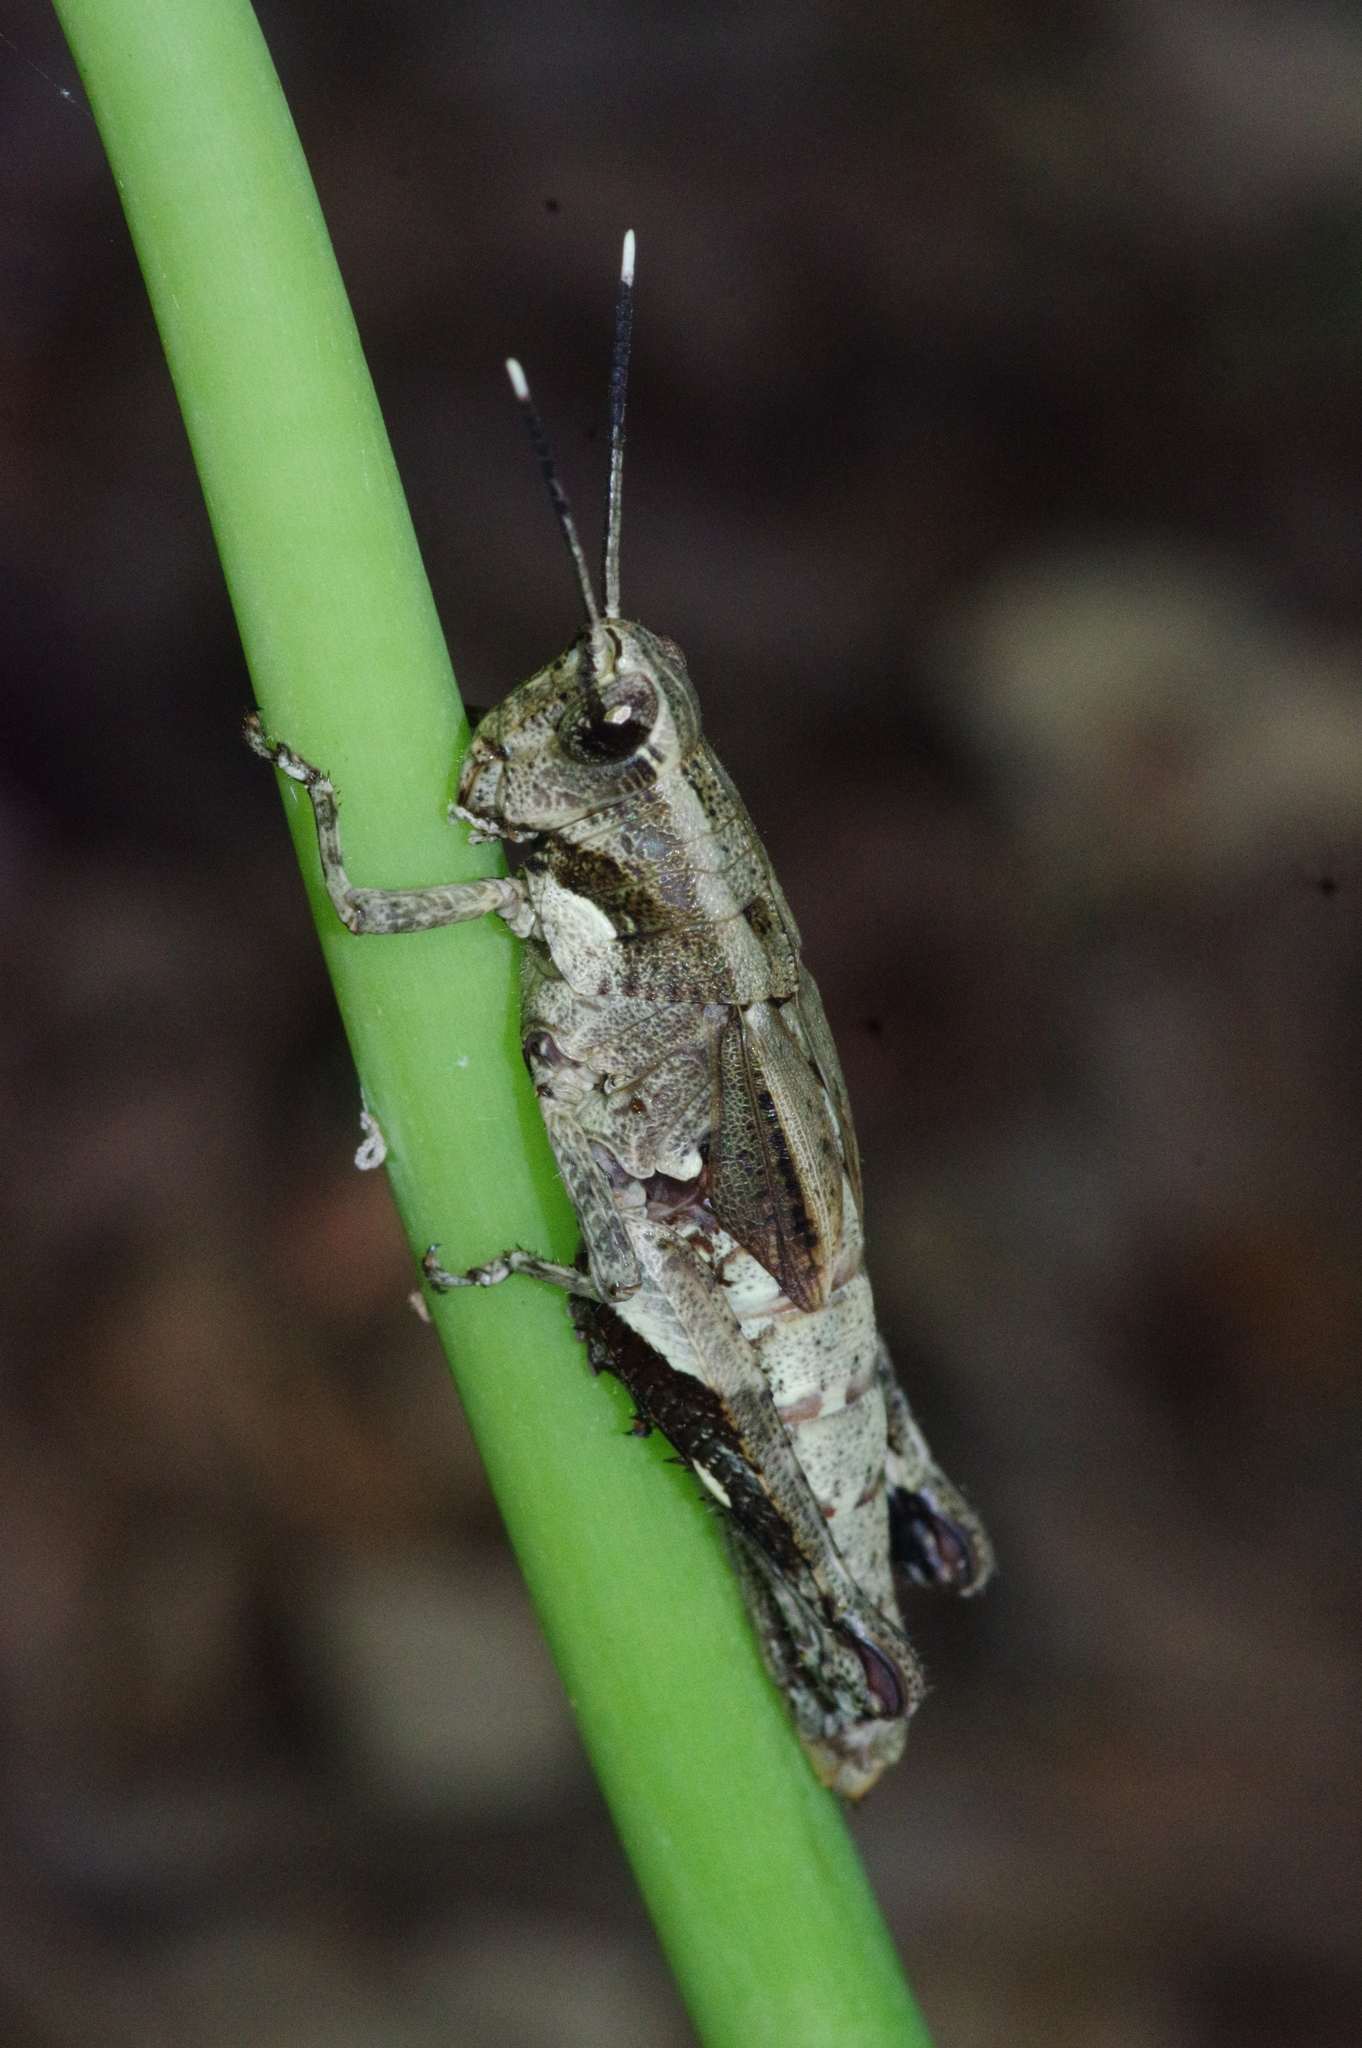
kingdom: Animalia
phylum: Arthropoda
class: Insecta
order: Orthoptera
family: Acrididae
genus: Traulia
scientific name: Traulia ornata
